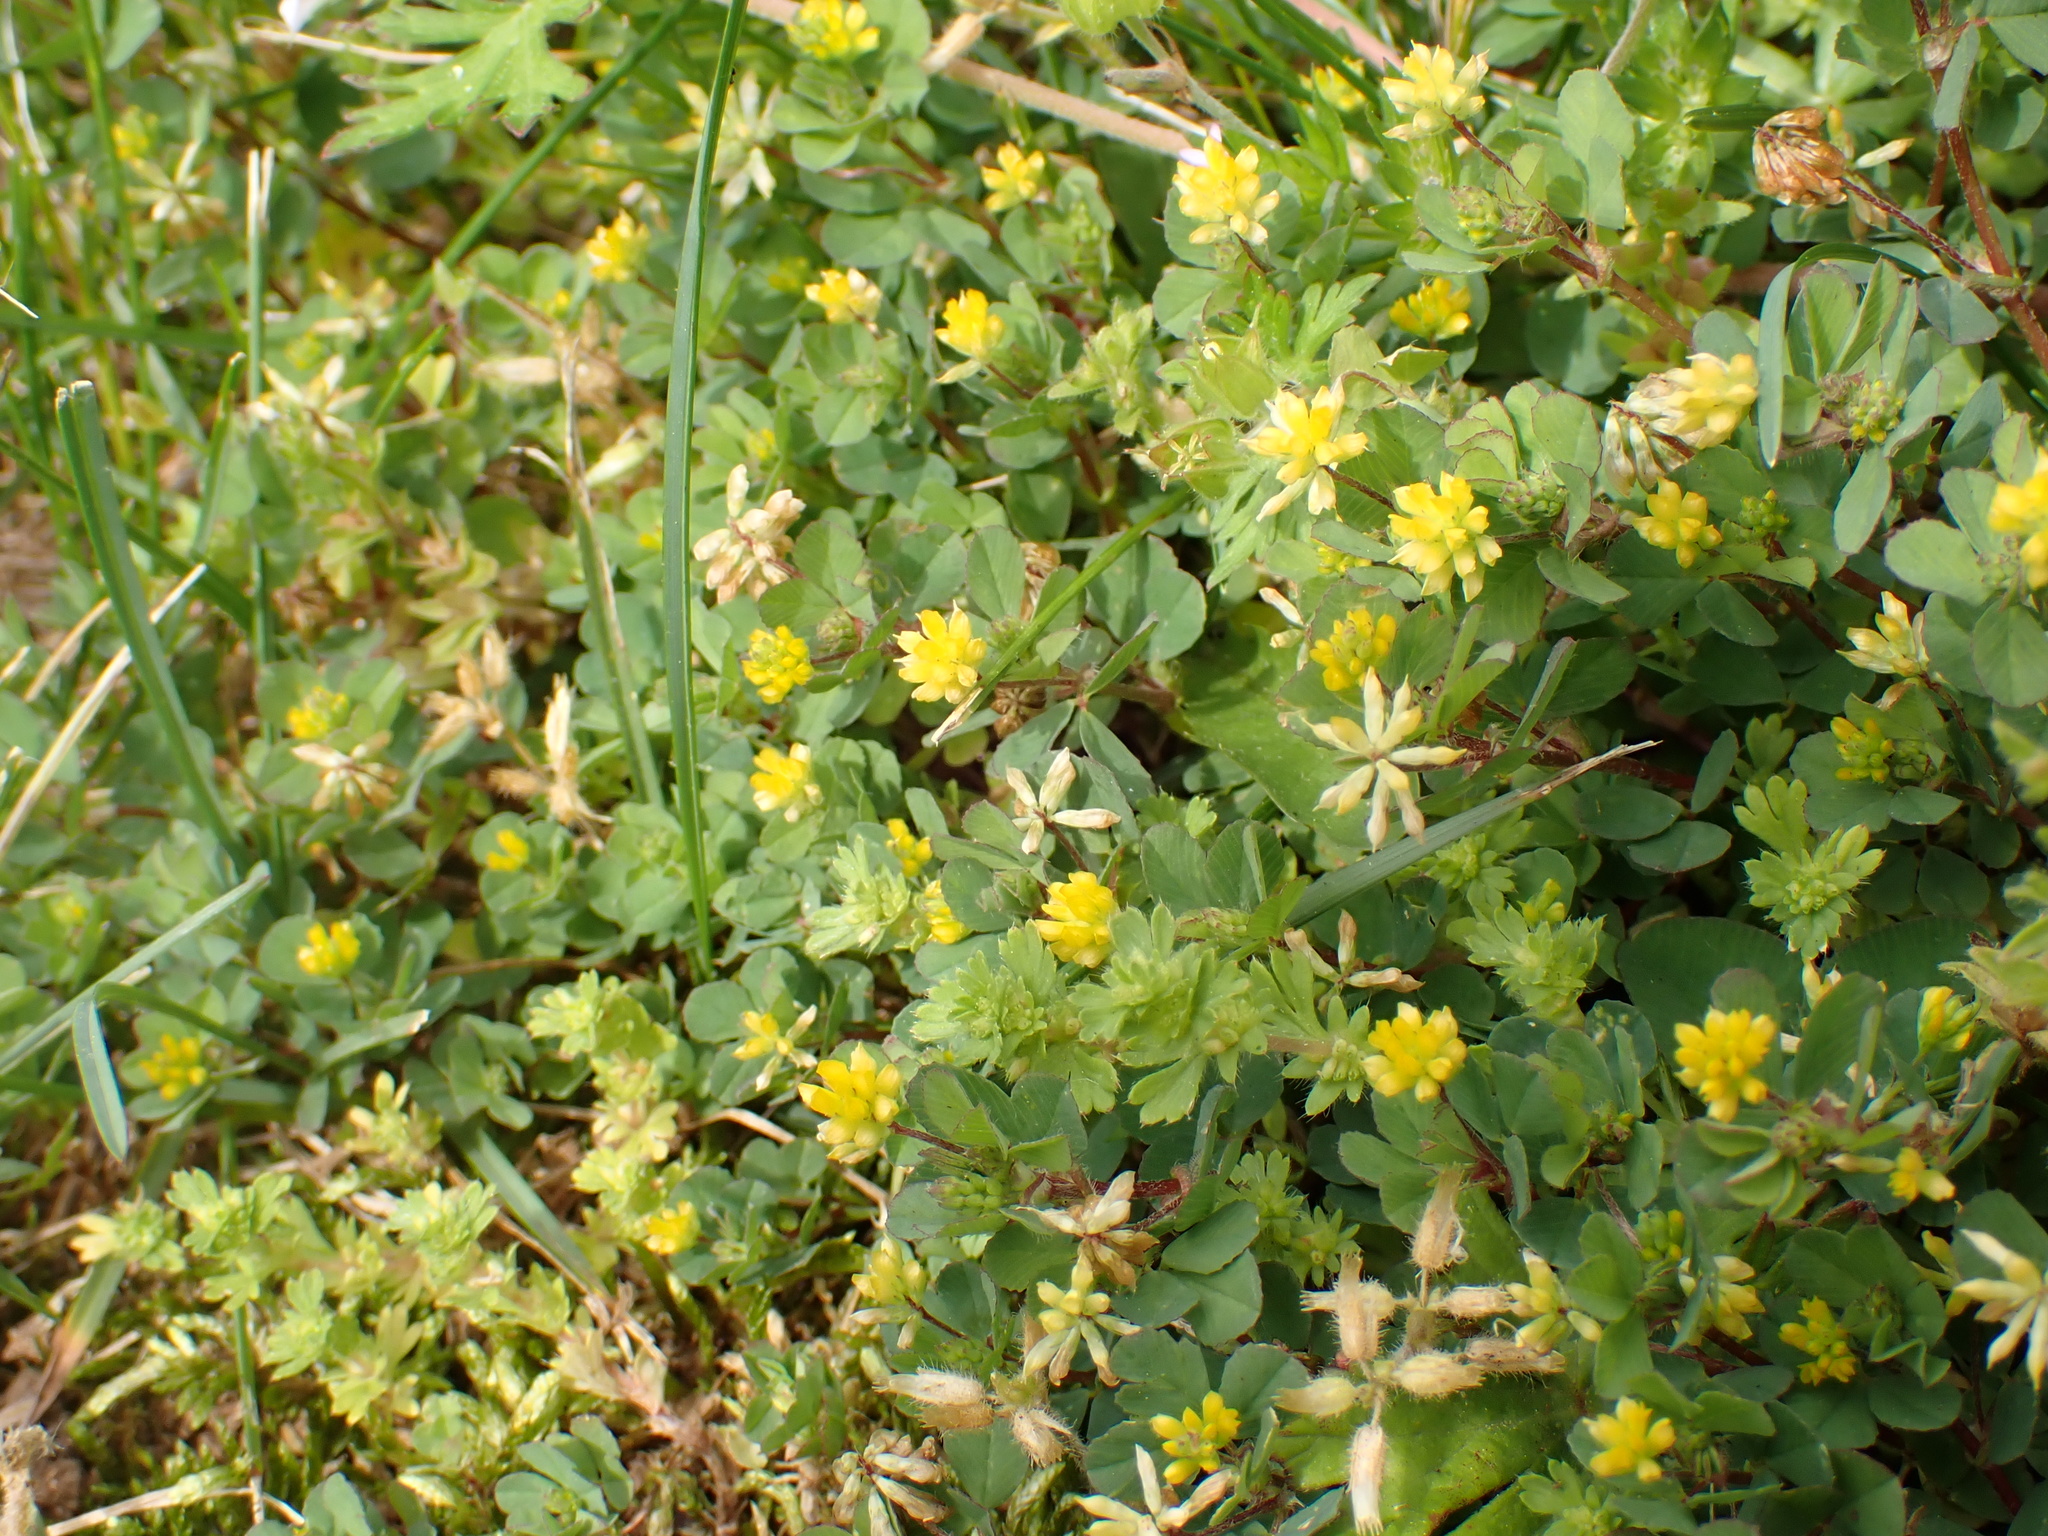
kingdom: Plantae
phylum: Tracheophyta
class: Magnoliopsida
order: Fabales
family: Fabaceae
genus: Trifolium
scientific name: Trifolium dubium
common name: Suckling clover
